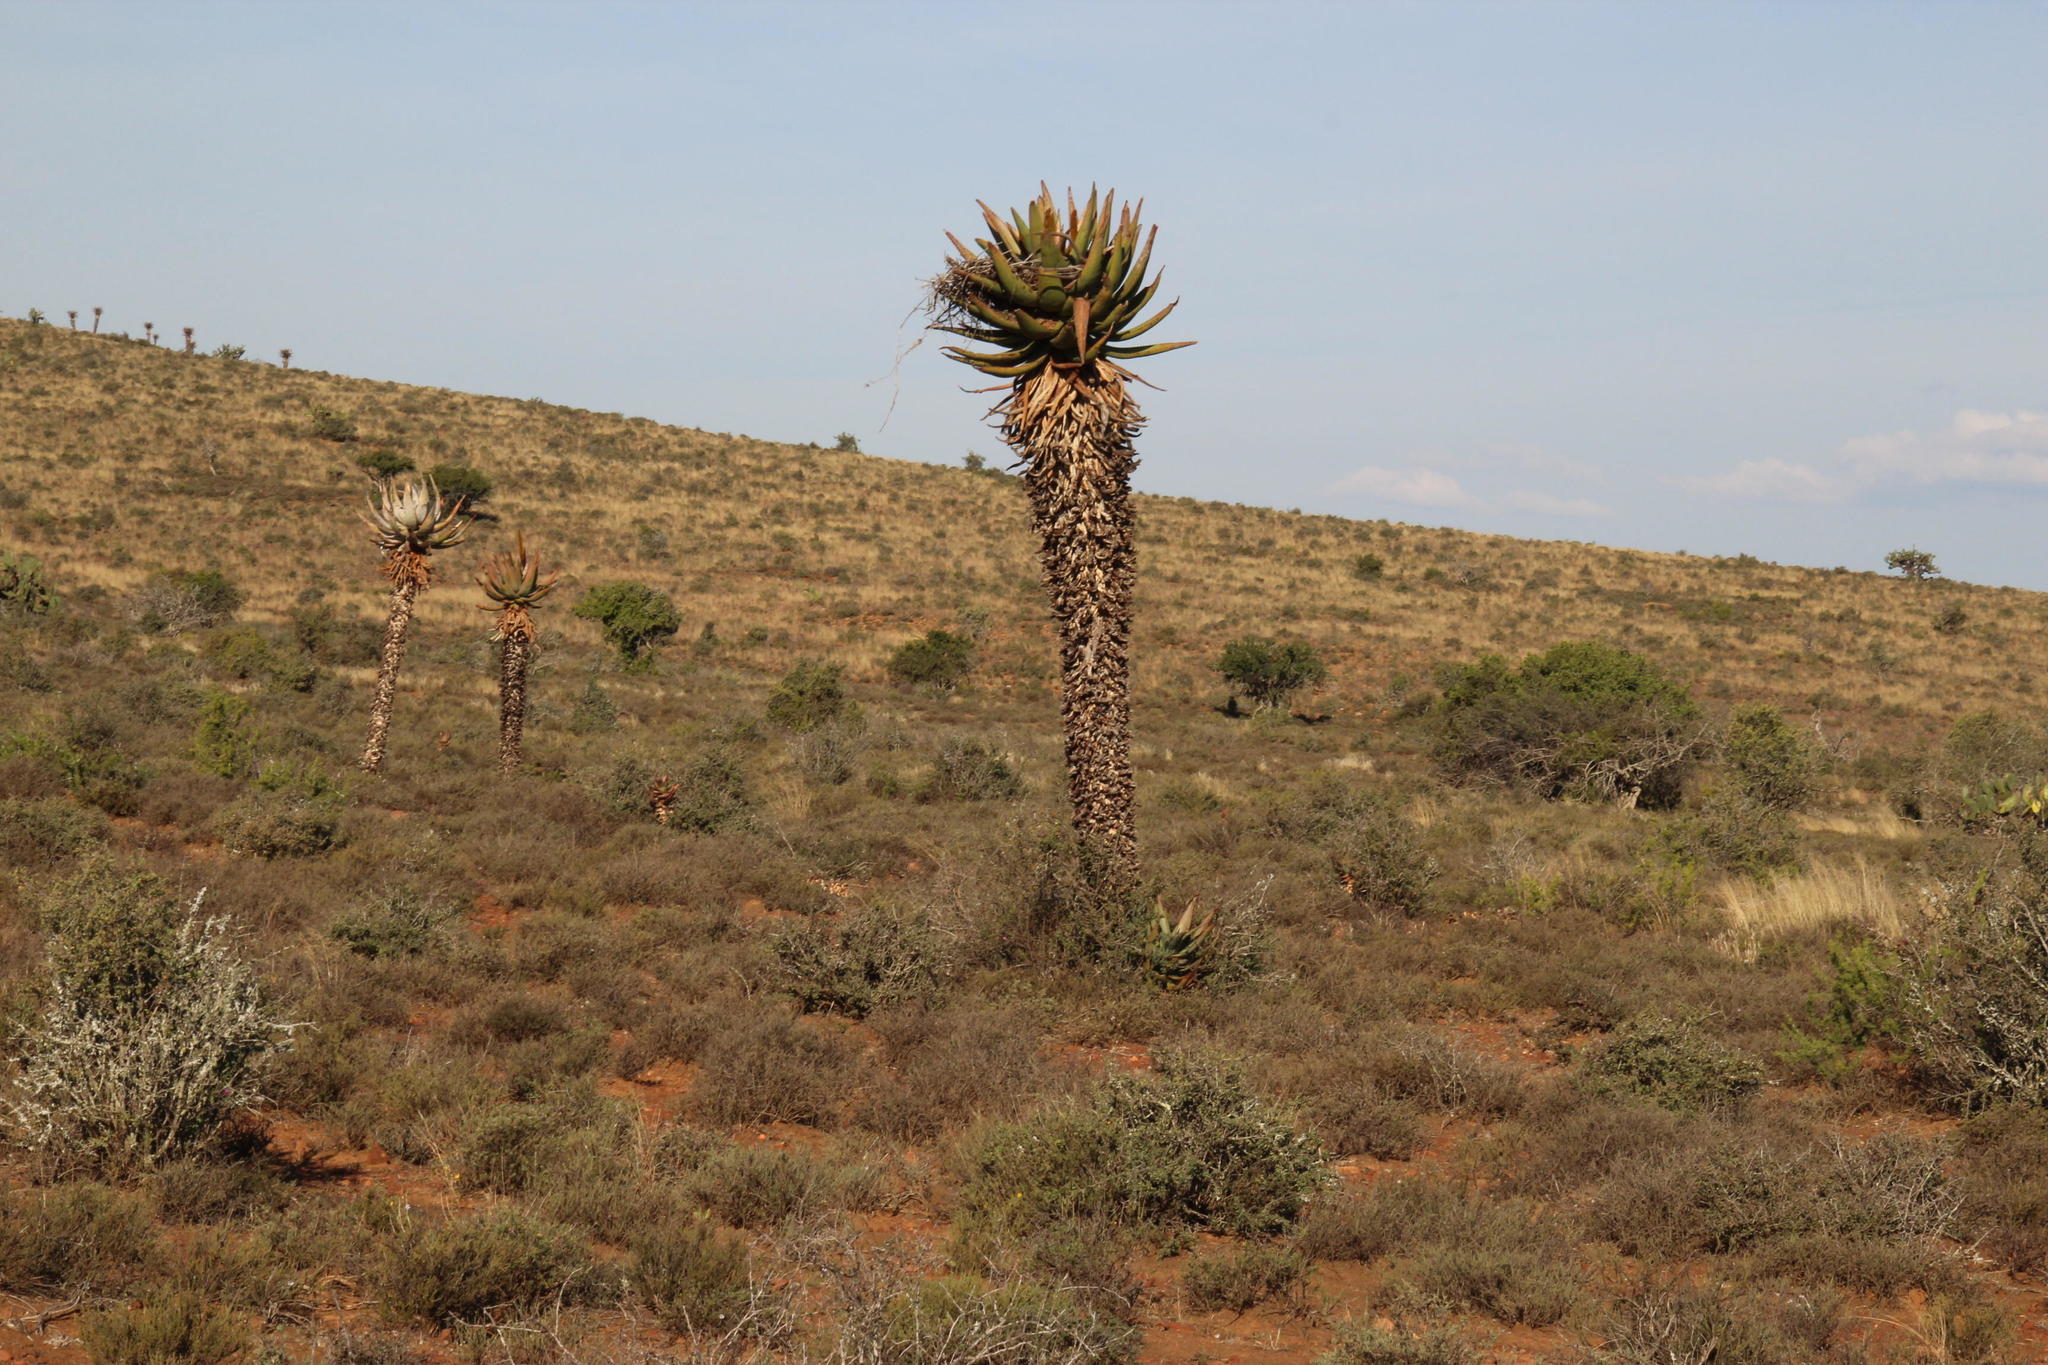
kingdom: Plantae
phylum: Tracheophyta
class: Liliopsida
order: Asparagales
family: Asphodelaceae
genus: Aloe
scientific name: Aloe ferox
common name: Bitter aloe
